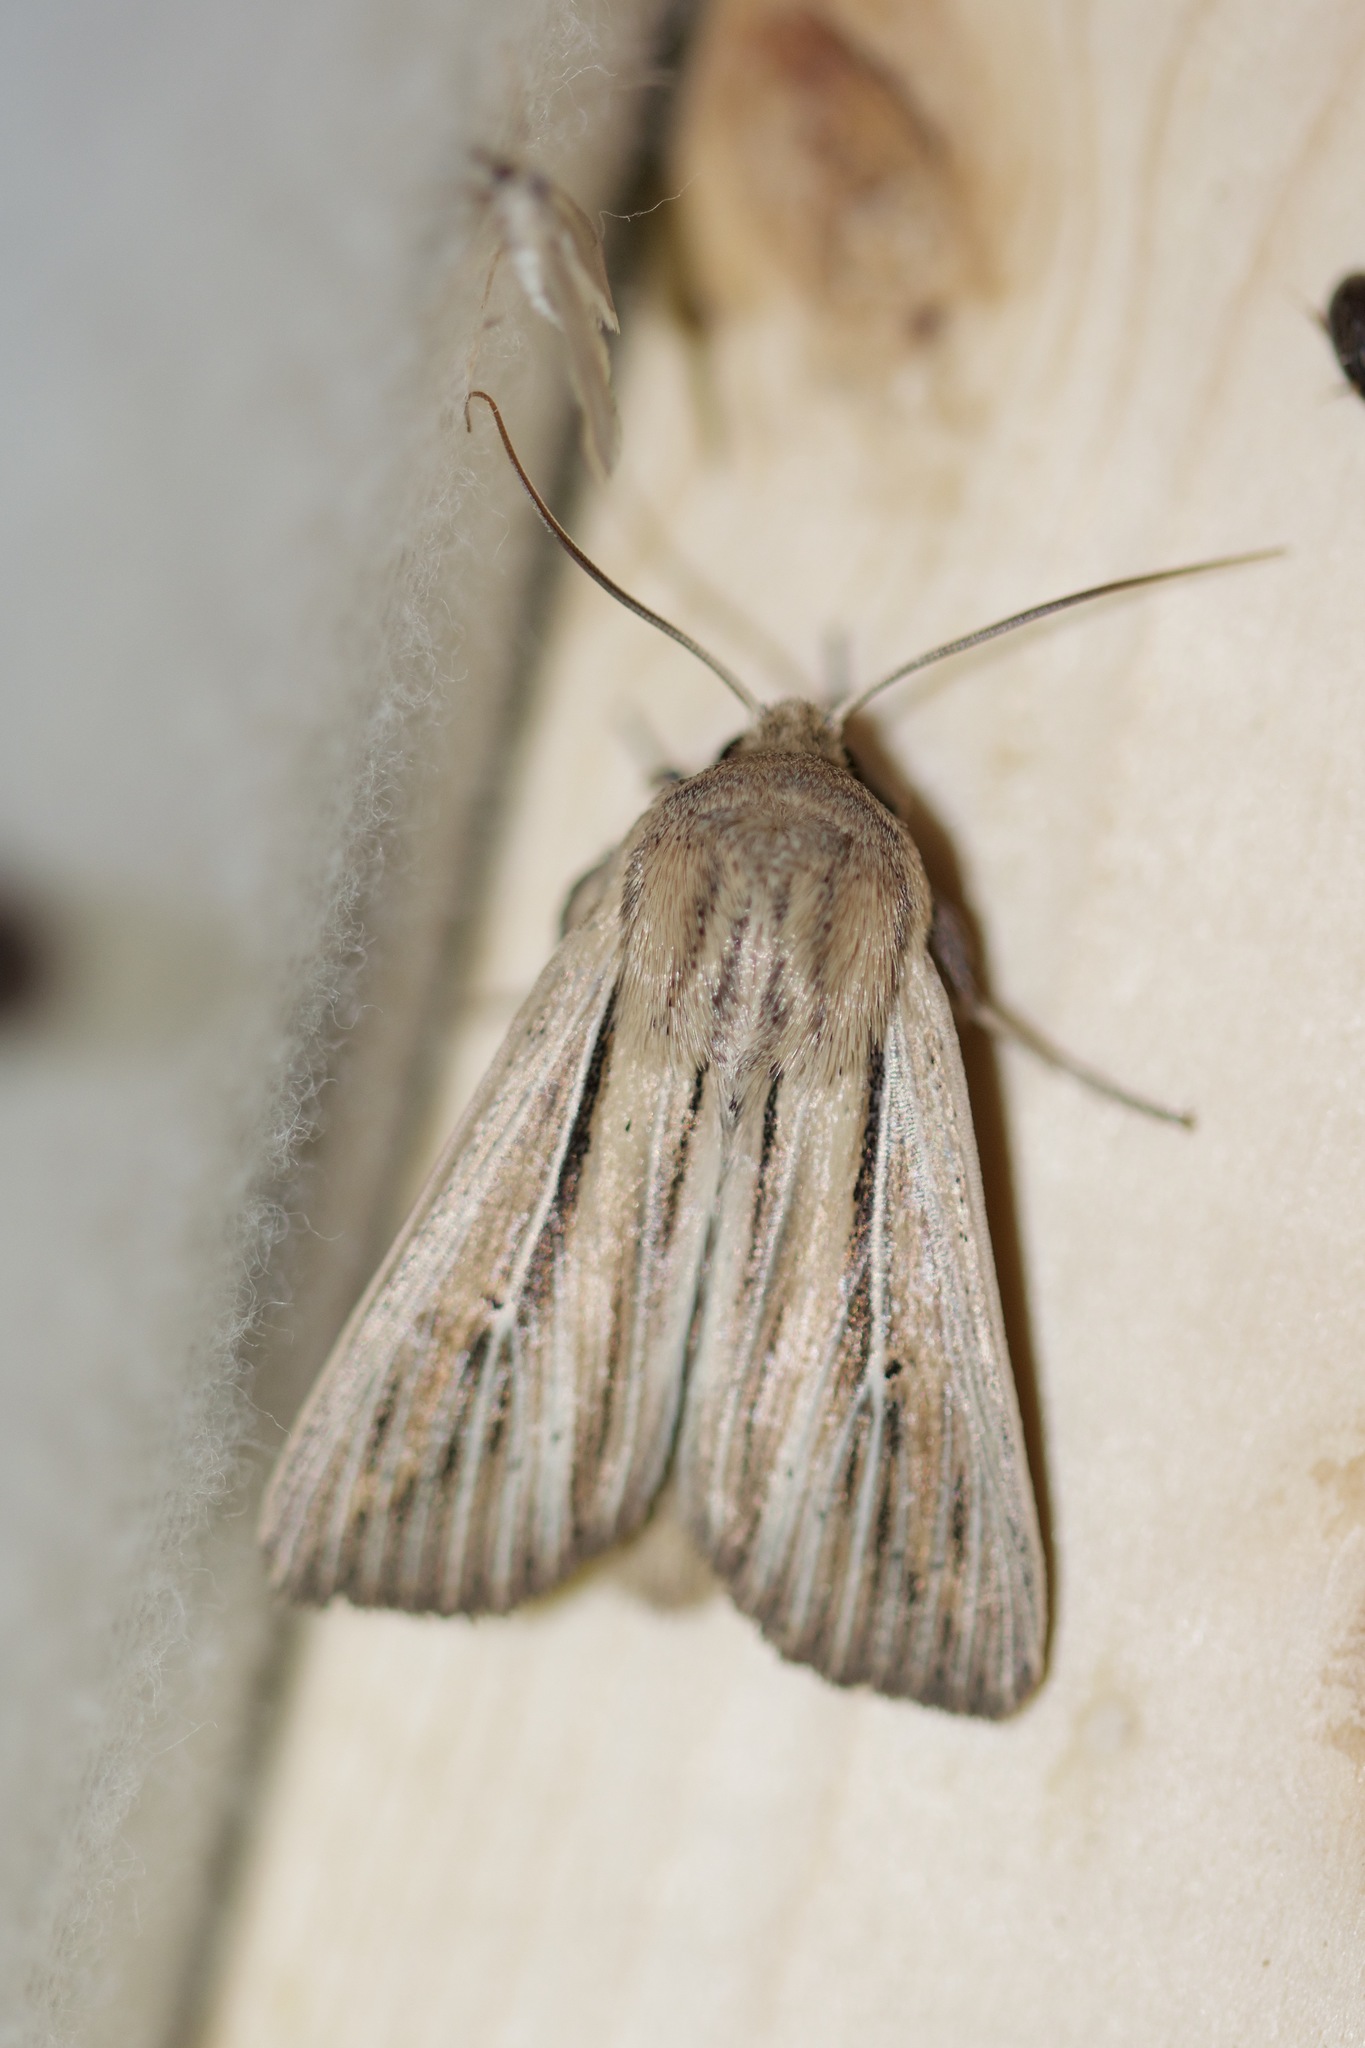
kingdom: Animalia
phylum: Arthropoda
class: Insecta
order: Lepidoptera
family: Noctuidae
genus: Leucania
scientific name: Leucania commoides
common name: Two-lined wainscot
